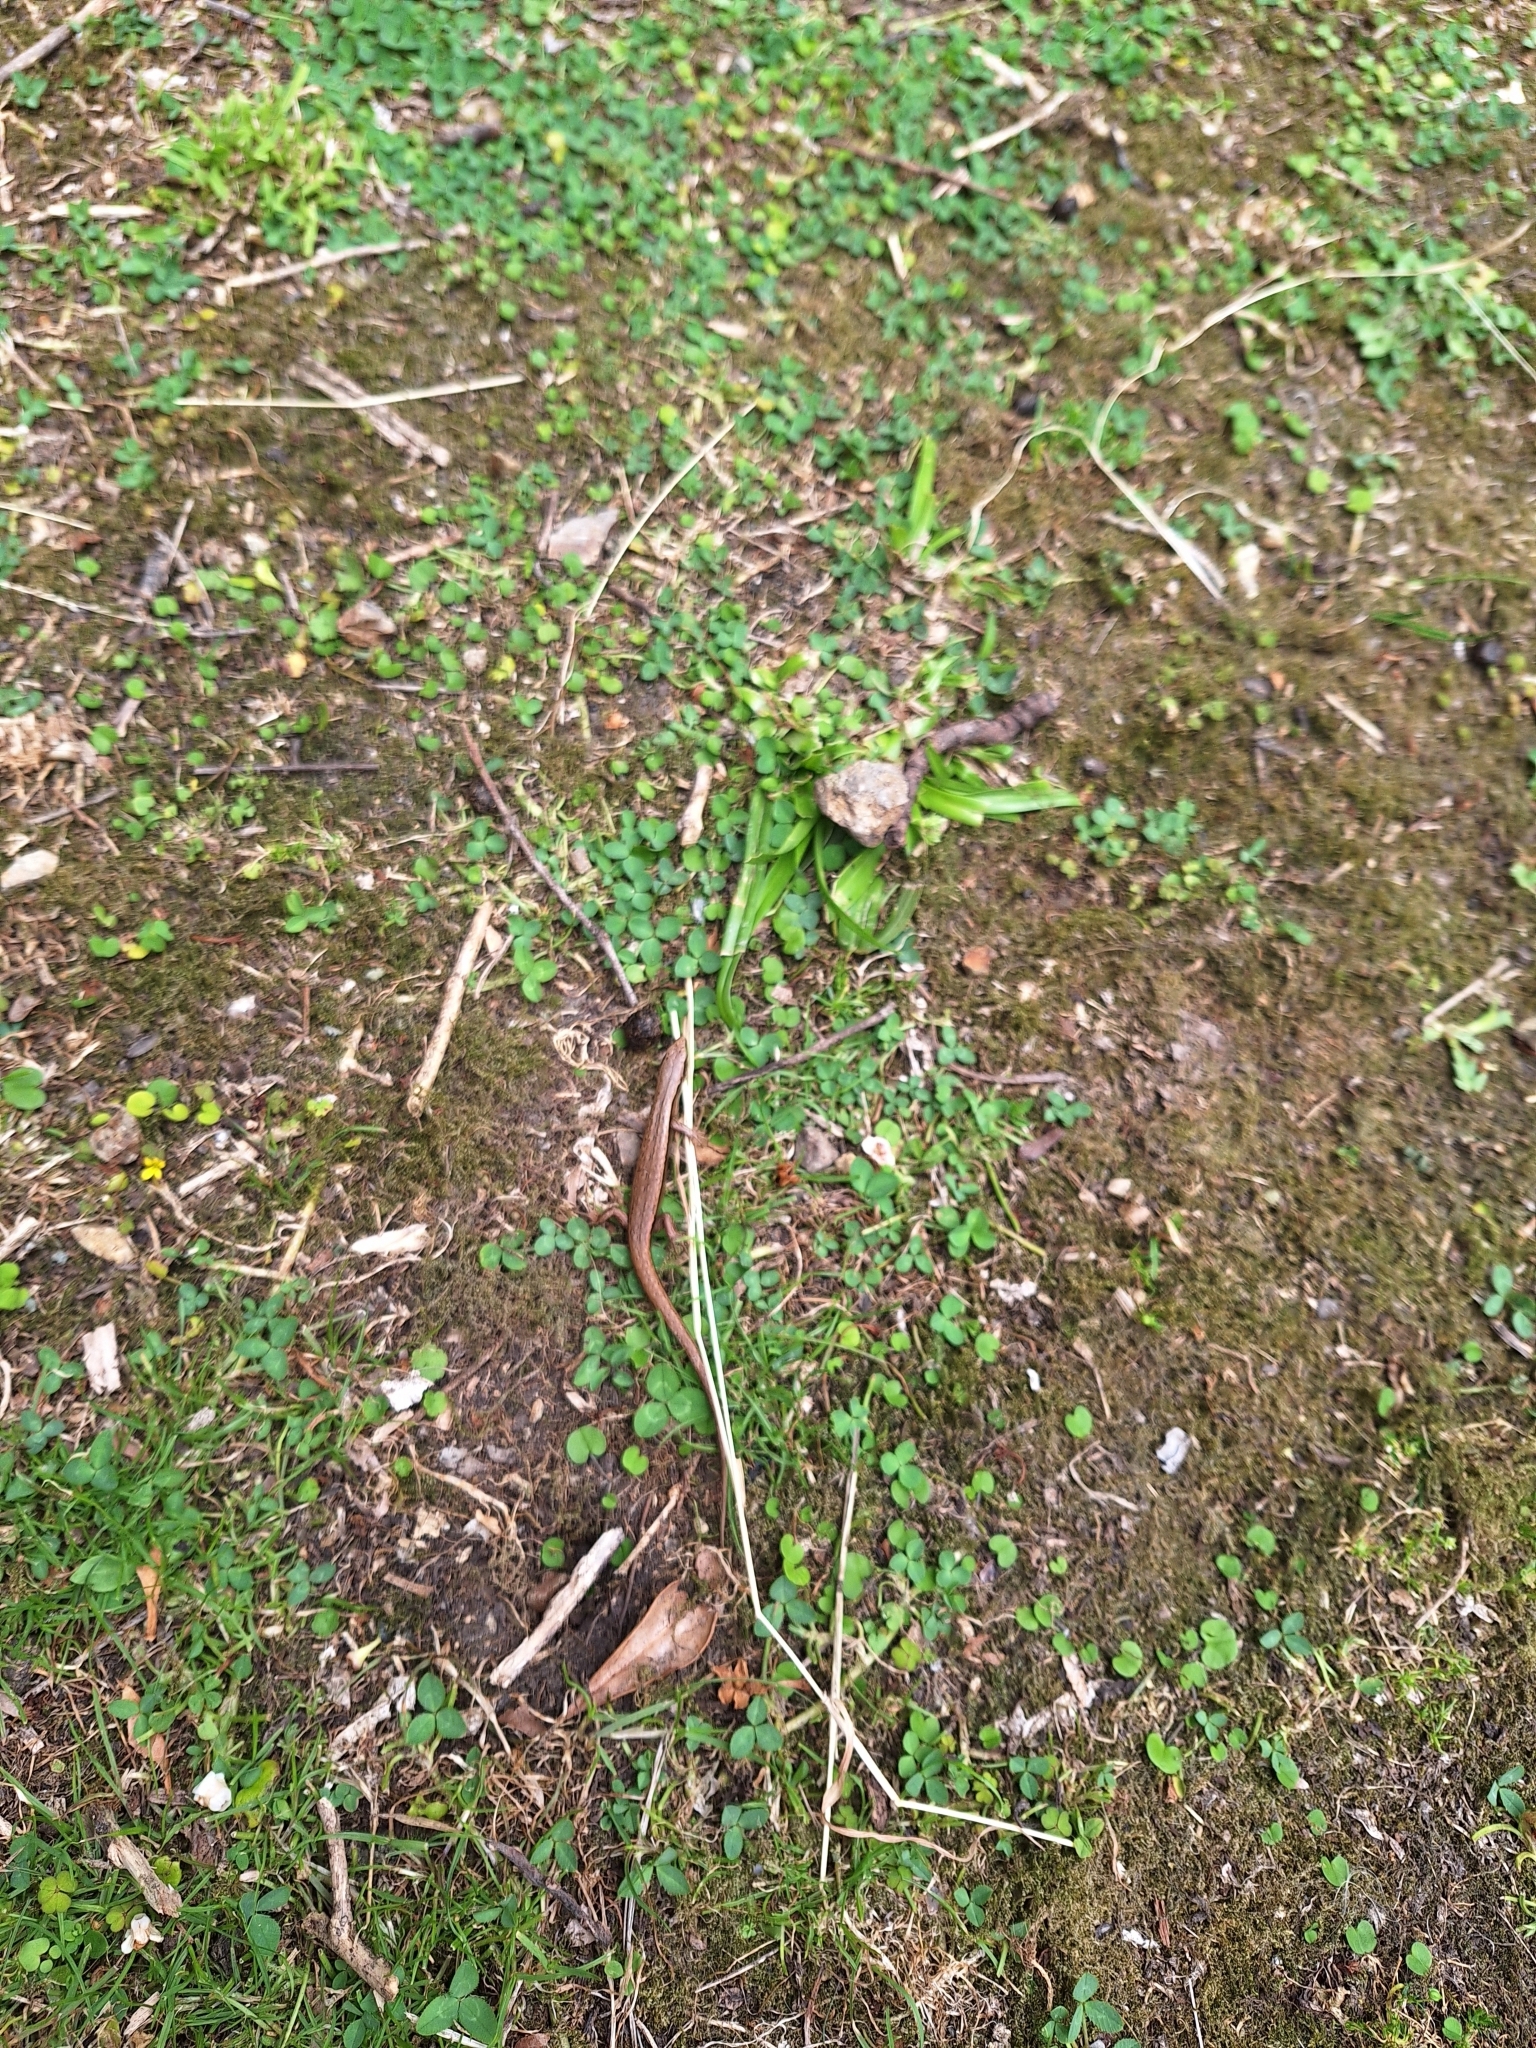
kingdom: Animalia
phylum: Chordata
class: Squamata
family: Scincidae
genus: Oligosoma
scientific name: Oligosoma polychroma
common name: Common new zealand skink
